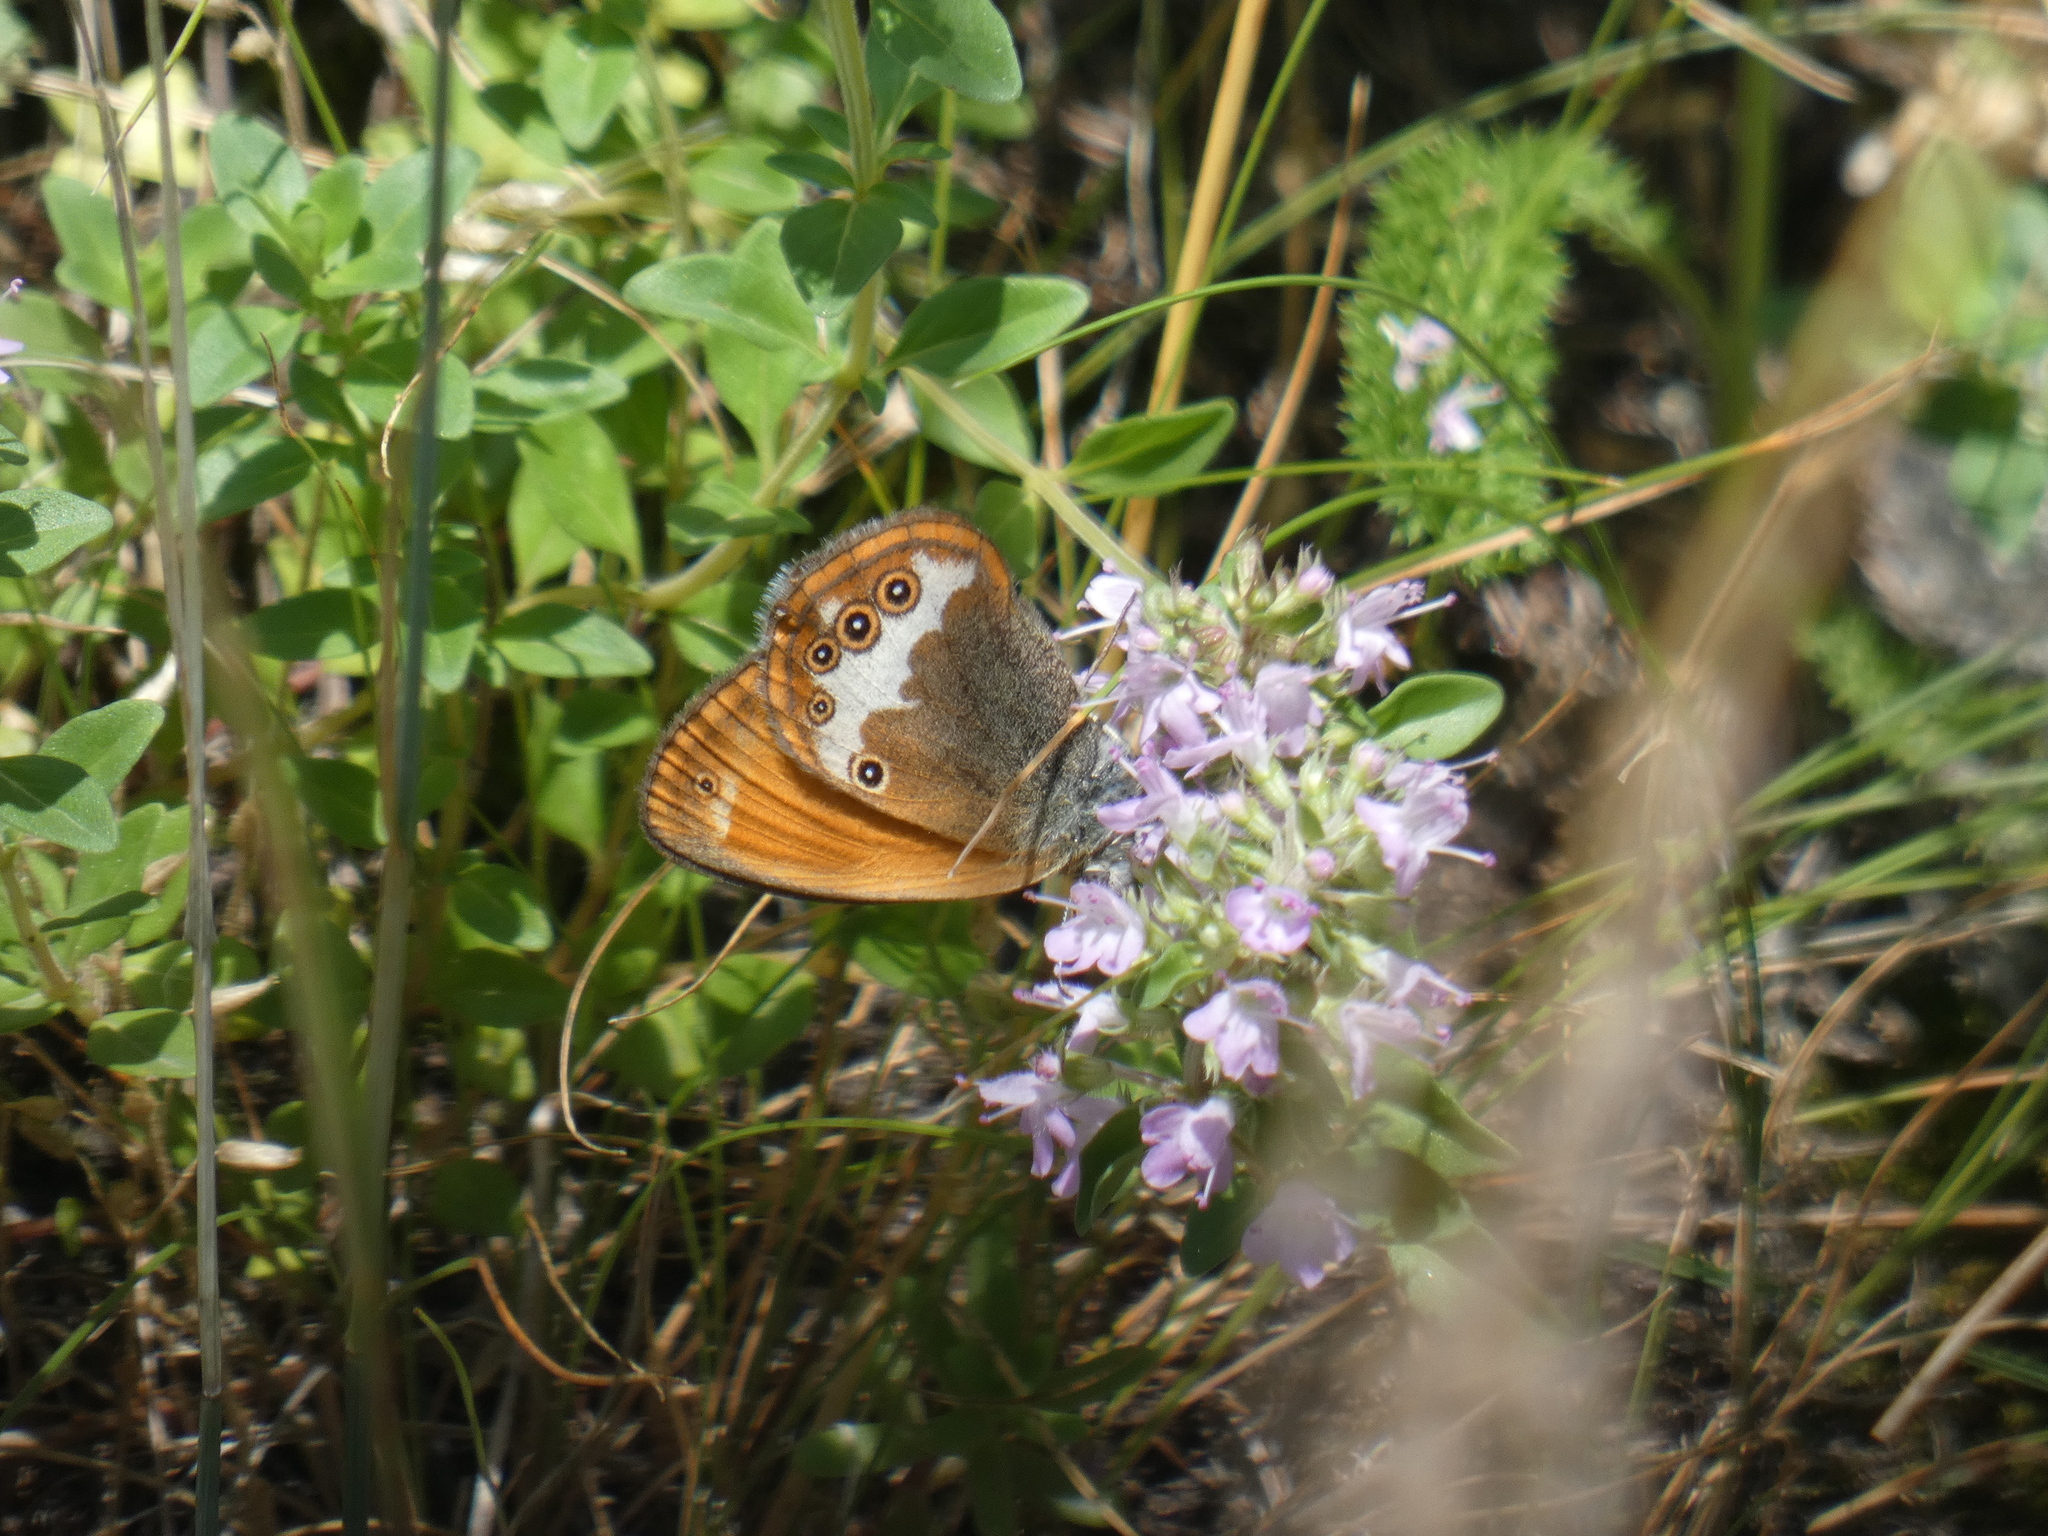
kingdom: Animalia
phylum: Arthropoda
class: Insecta
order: Lepidoptera
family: Nymphalidae
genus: Coenonympha
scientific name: Coenonympha arcania
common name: Pearly heath
